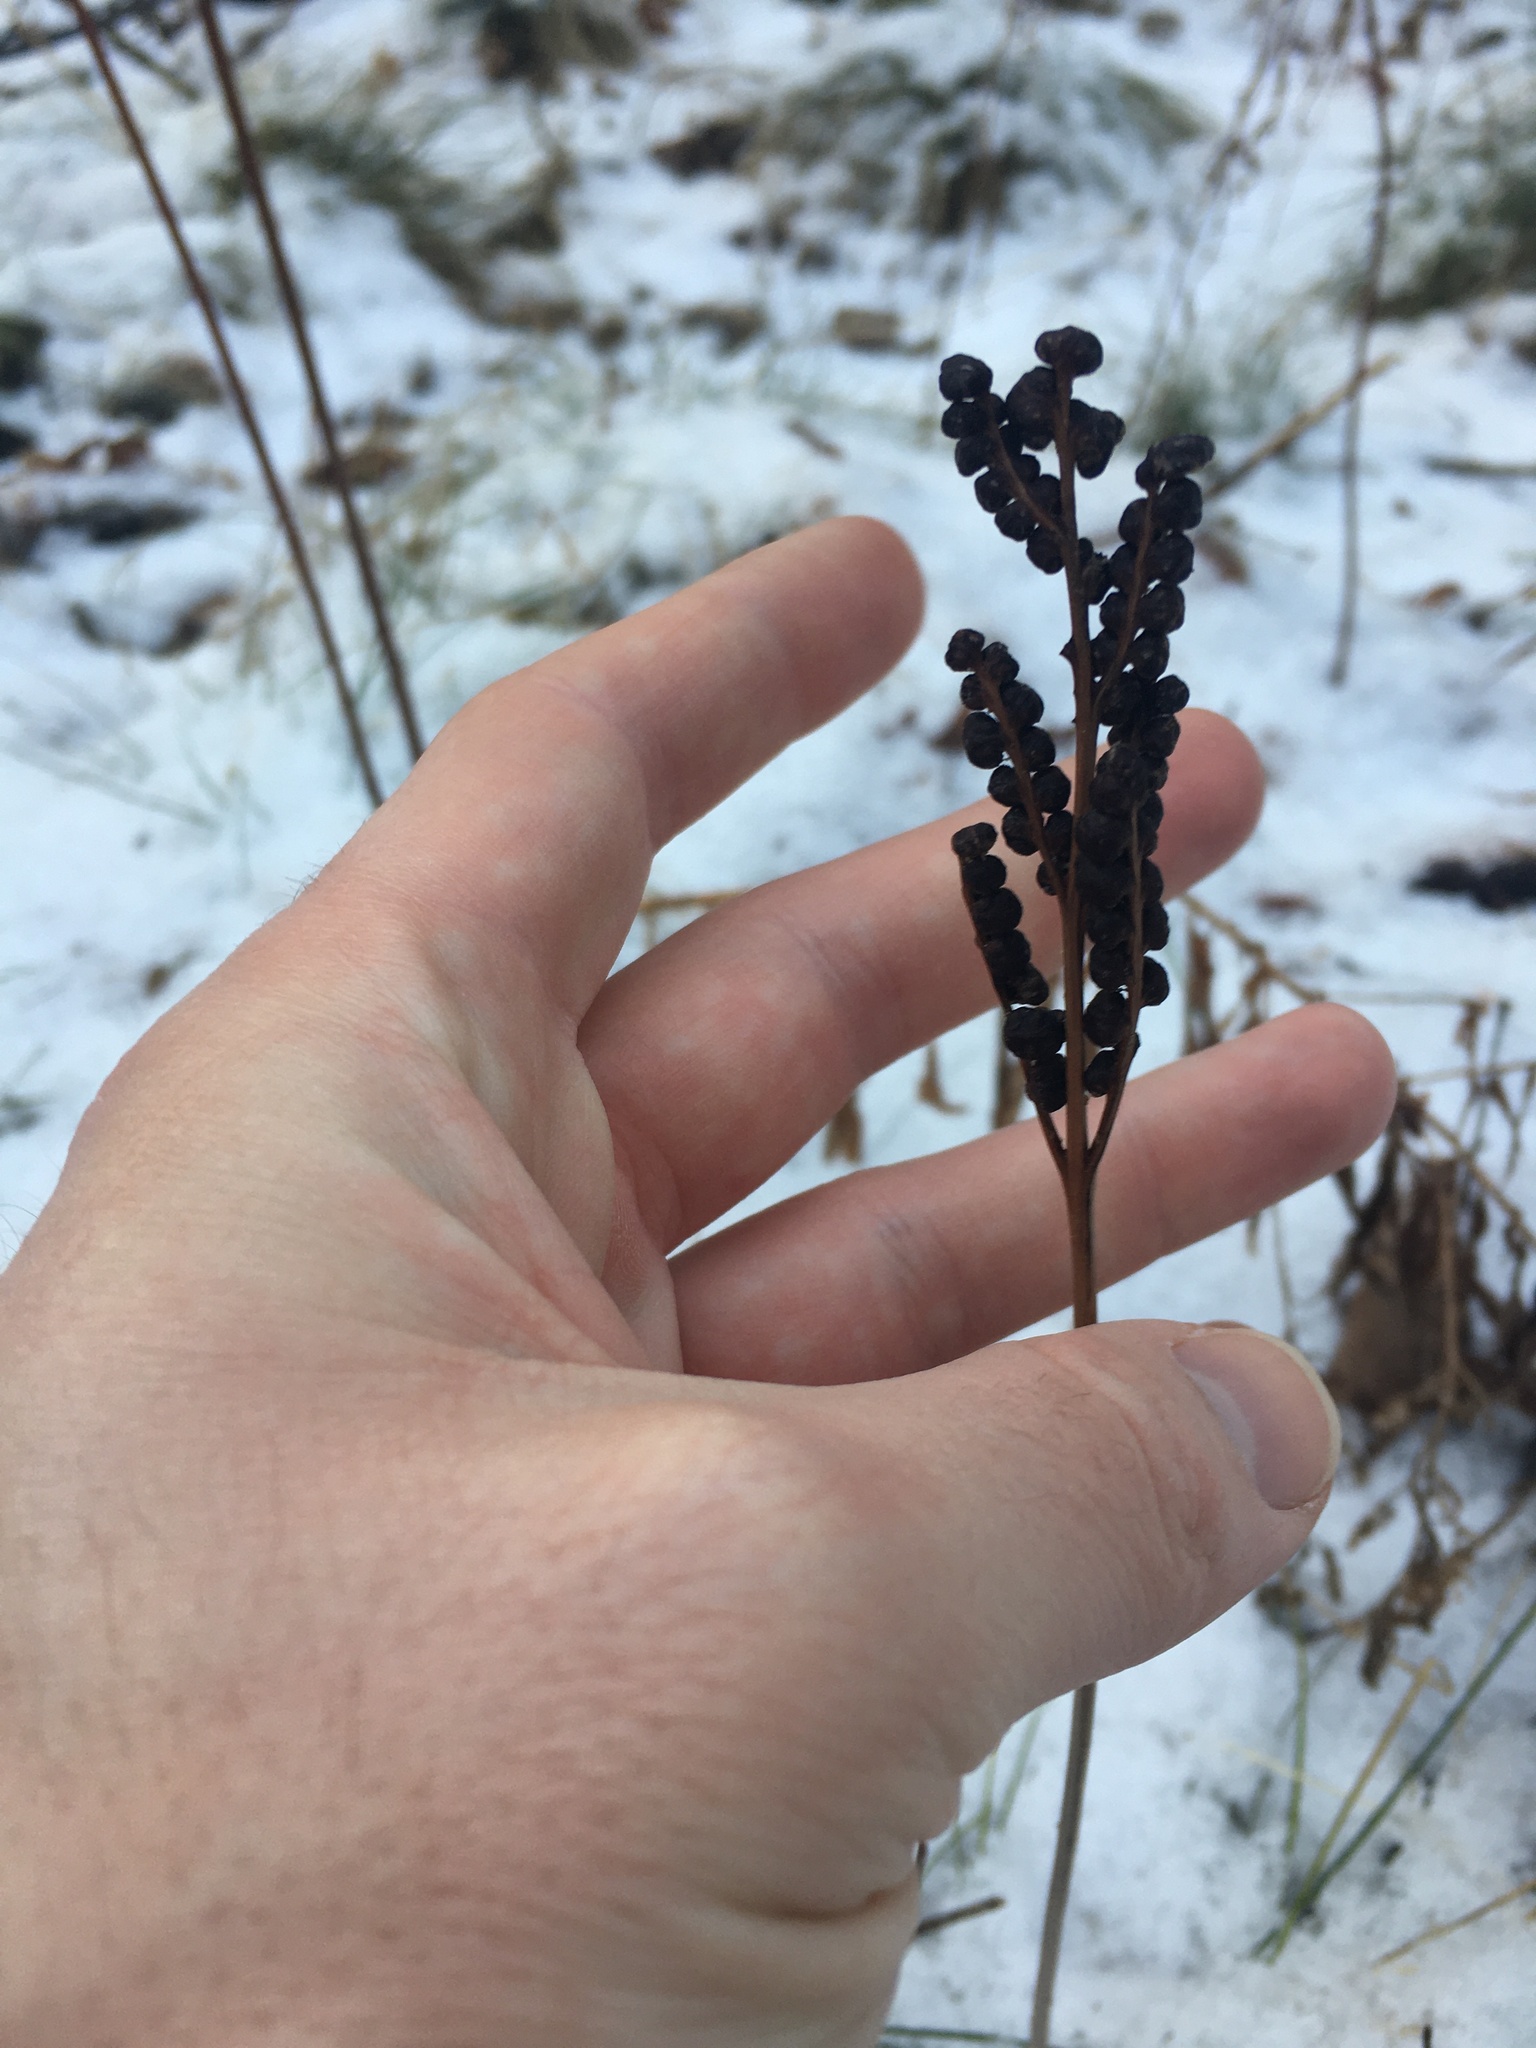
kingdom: Plantae
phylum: Tracheophyta
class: Polypodiopsida
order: Polypodiales
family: Onocleaceae
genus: Onoclea
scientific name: Onoclea sensibilis
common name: Sensitive fern
